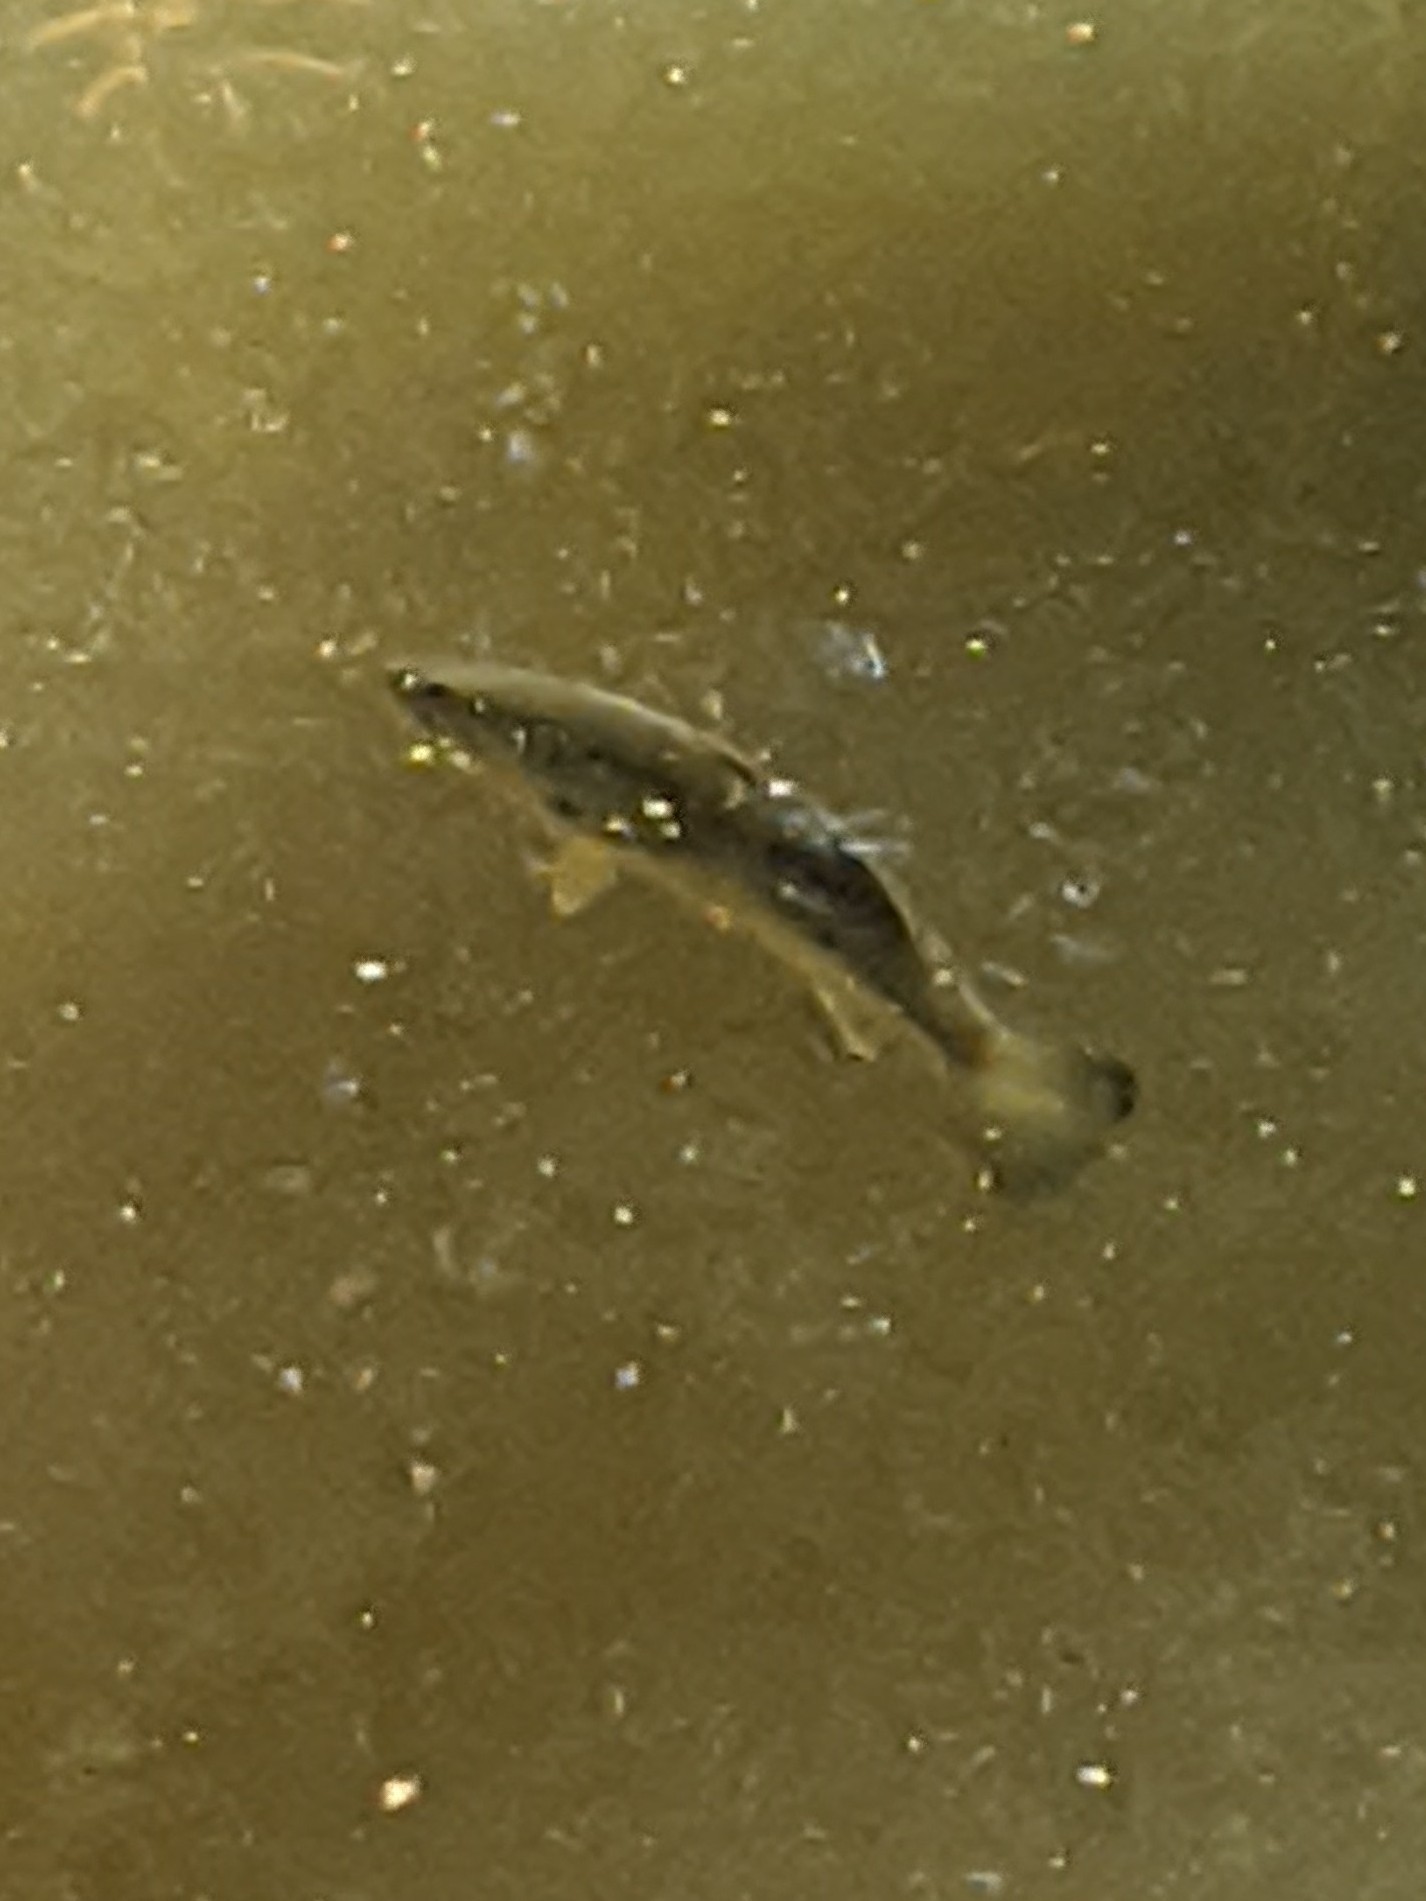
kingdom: Animalia
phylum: Chordata
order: Perciformes
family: Centrarchidae
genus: Micropterus
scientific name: Micropterus
